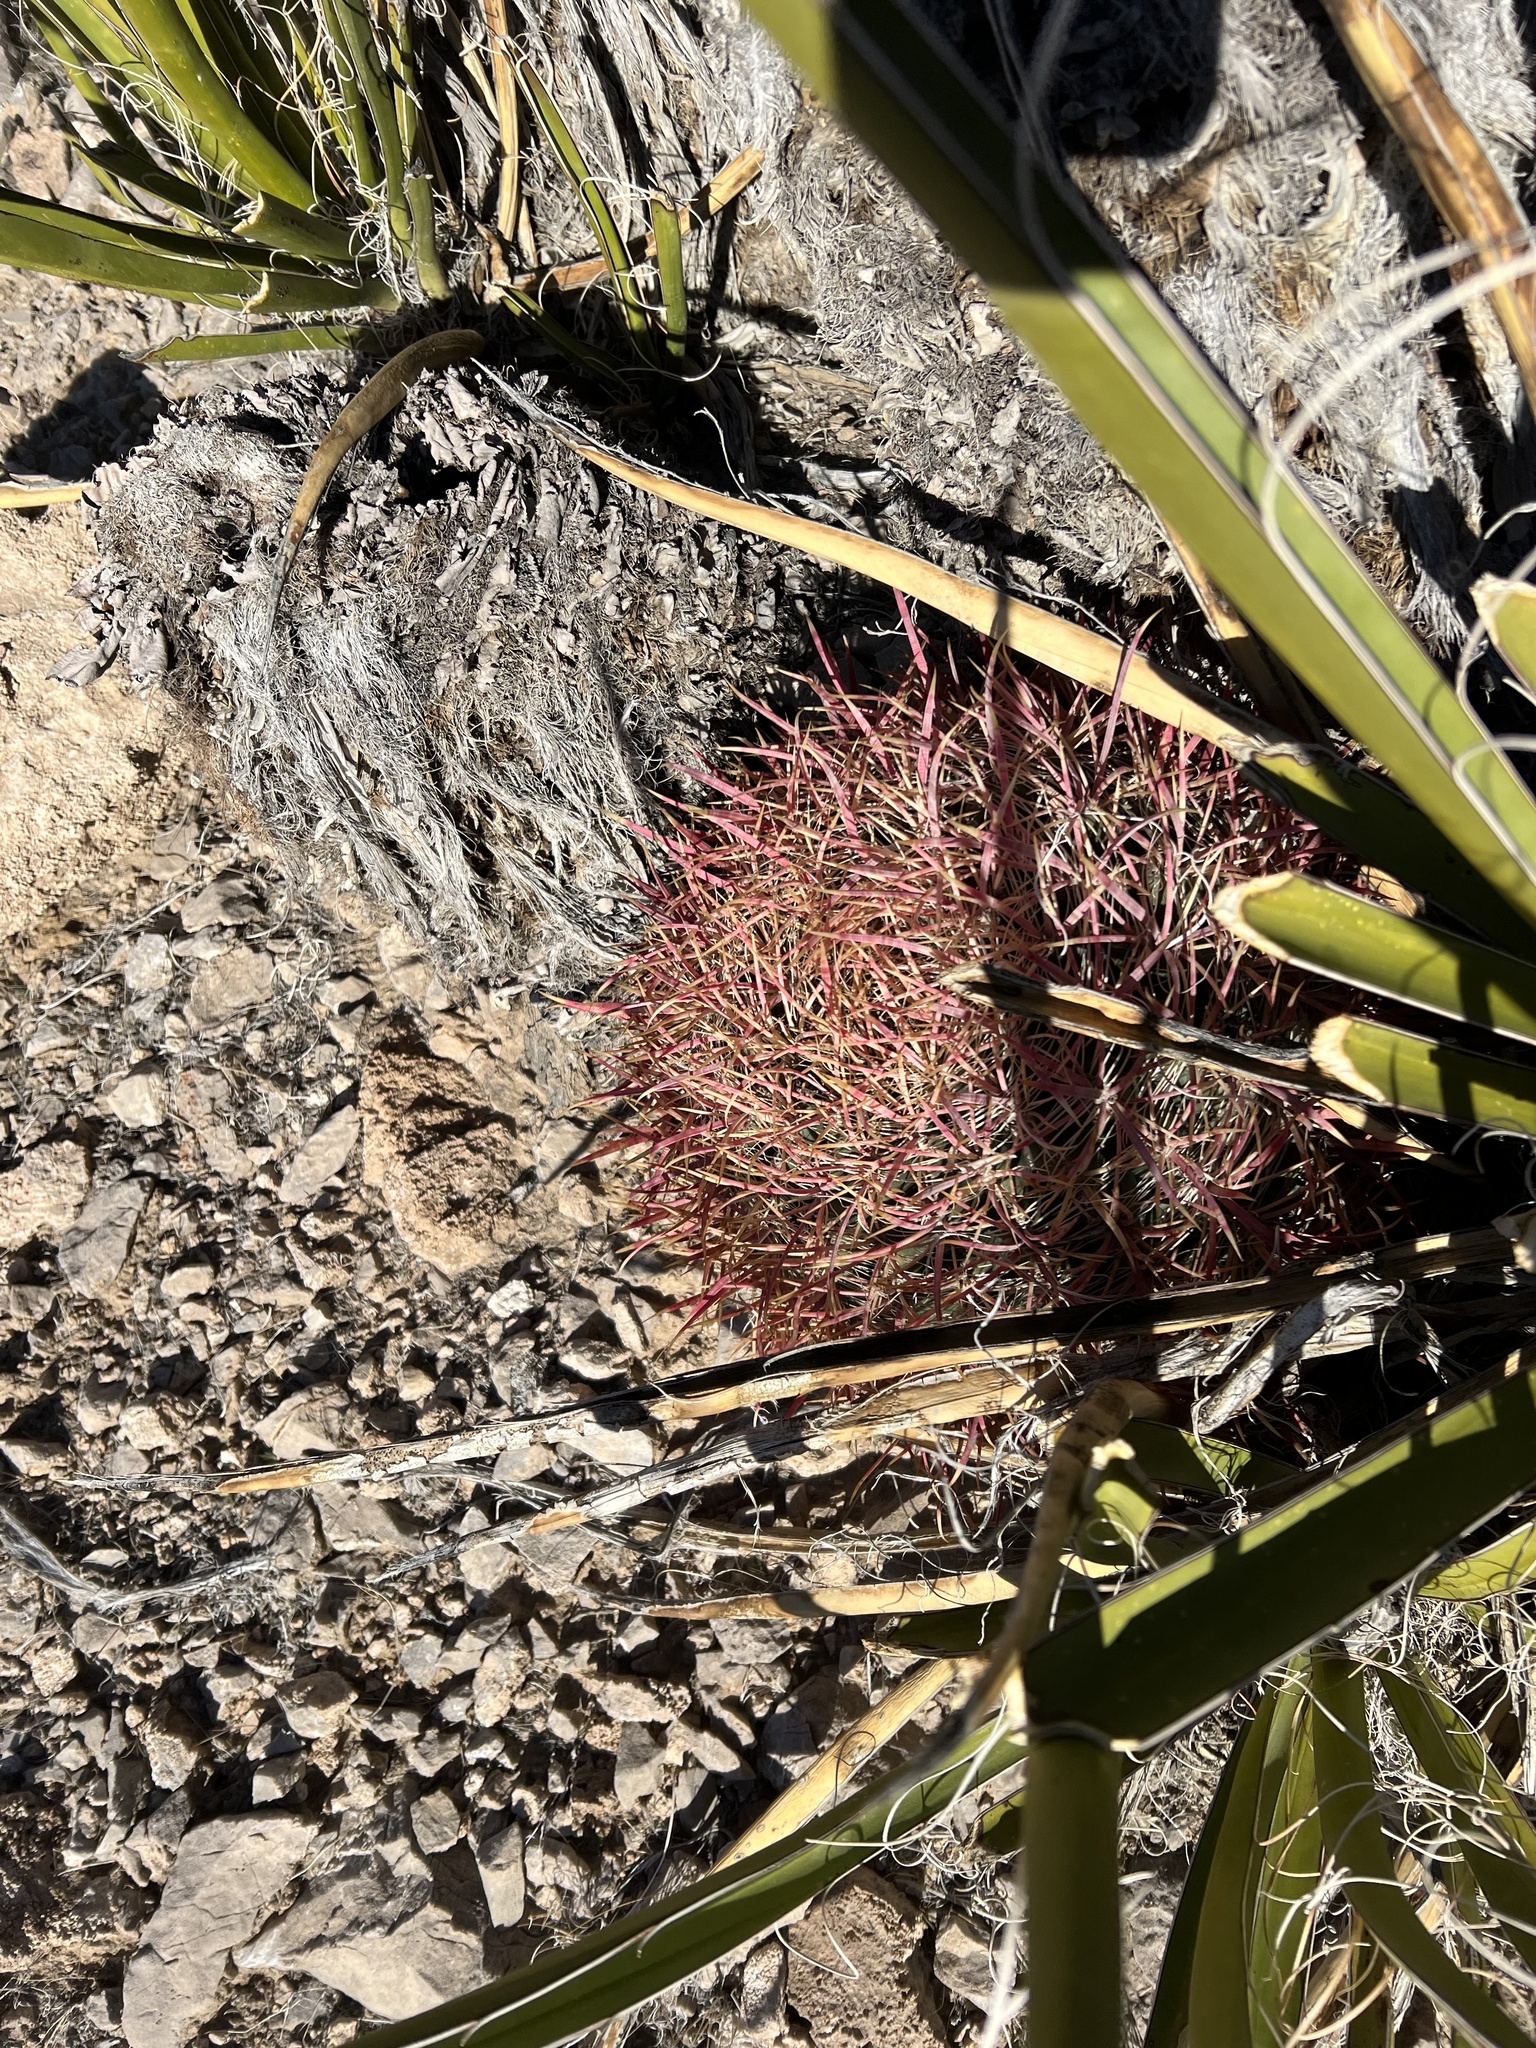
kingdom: Plantae
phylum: Tracheophyta
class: Magnoliopsida
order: Caryophyllales
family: Cactaceae
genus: Ferocactus
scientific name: Ferocactus cylindraceus
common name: California barrel cactus
